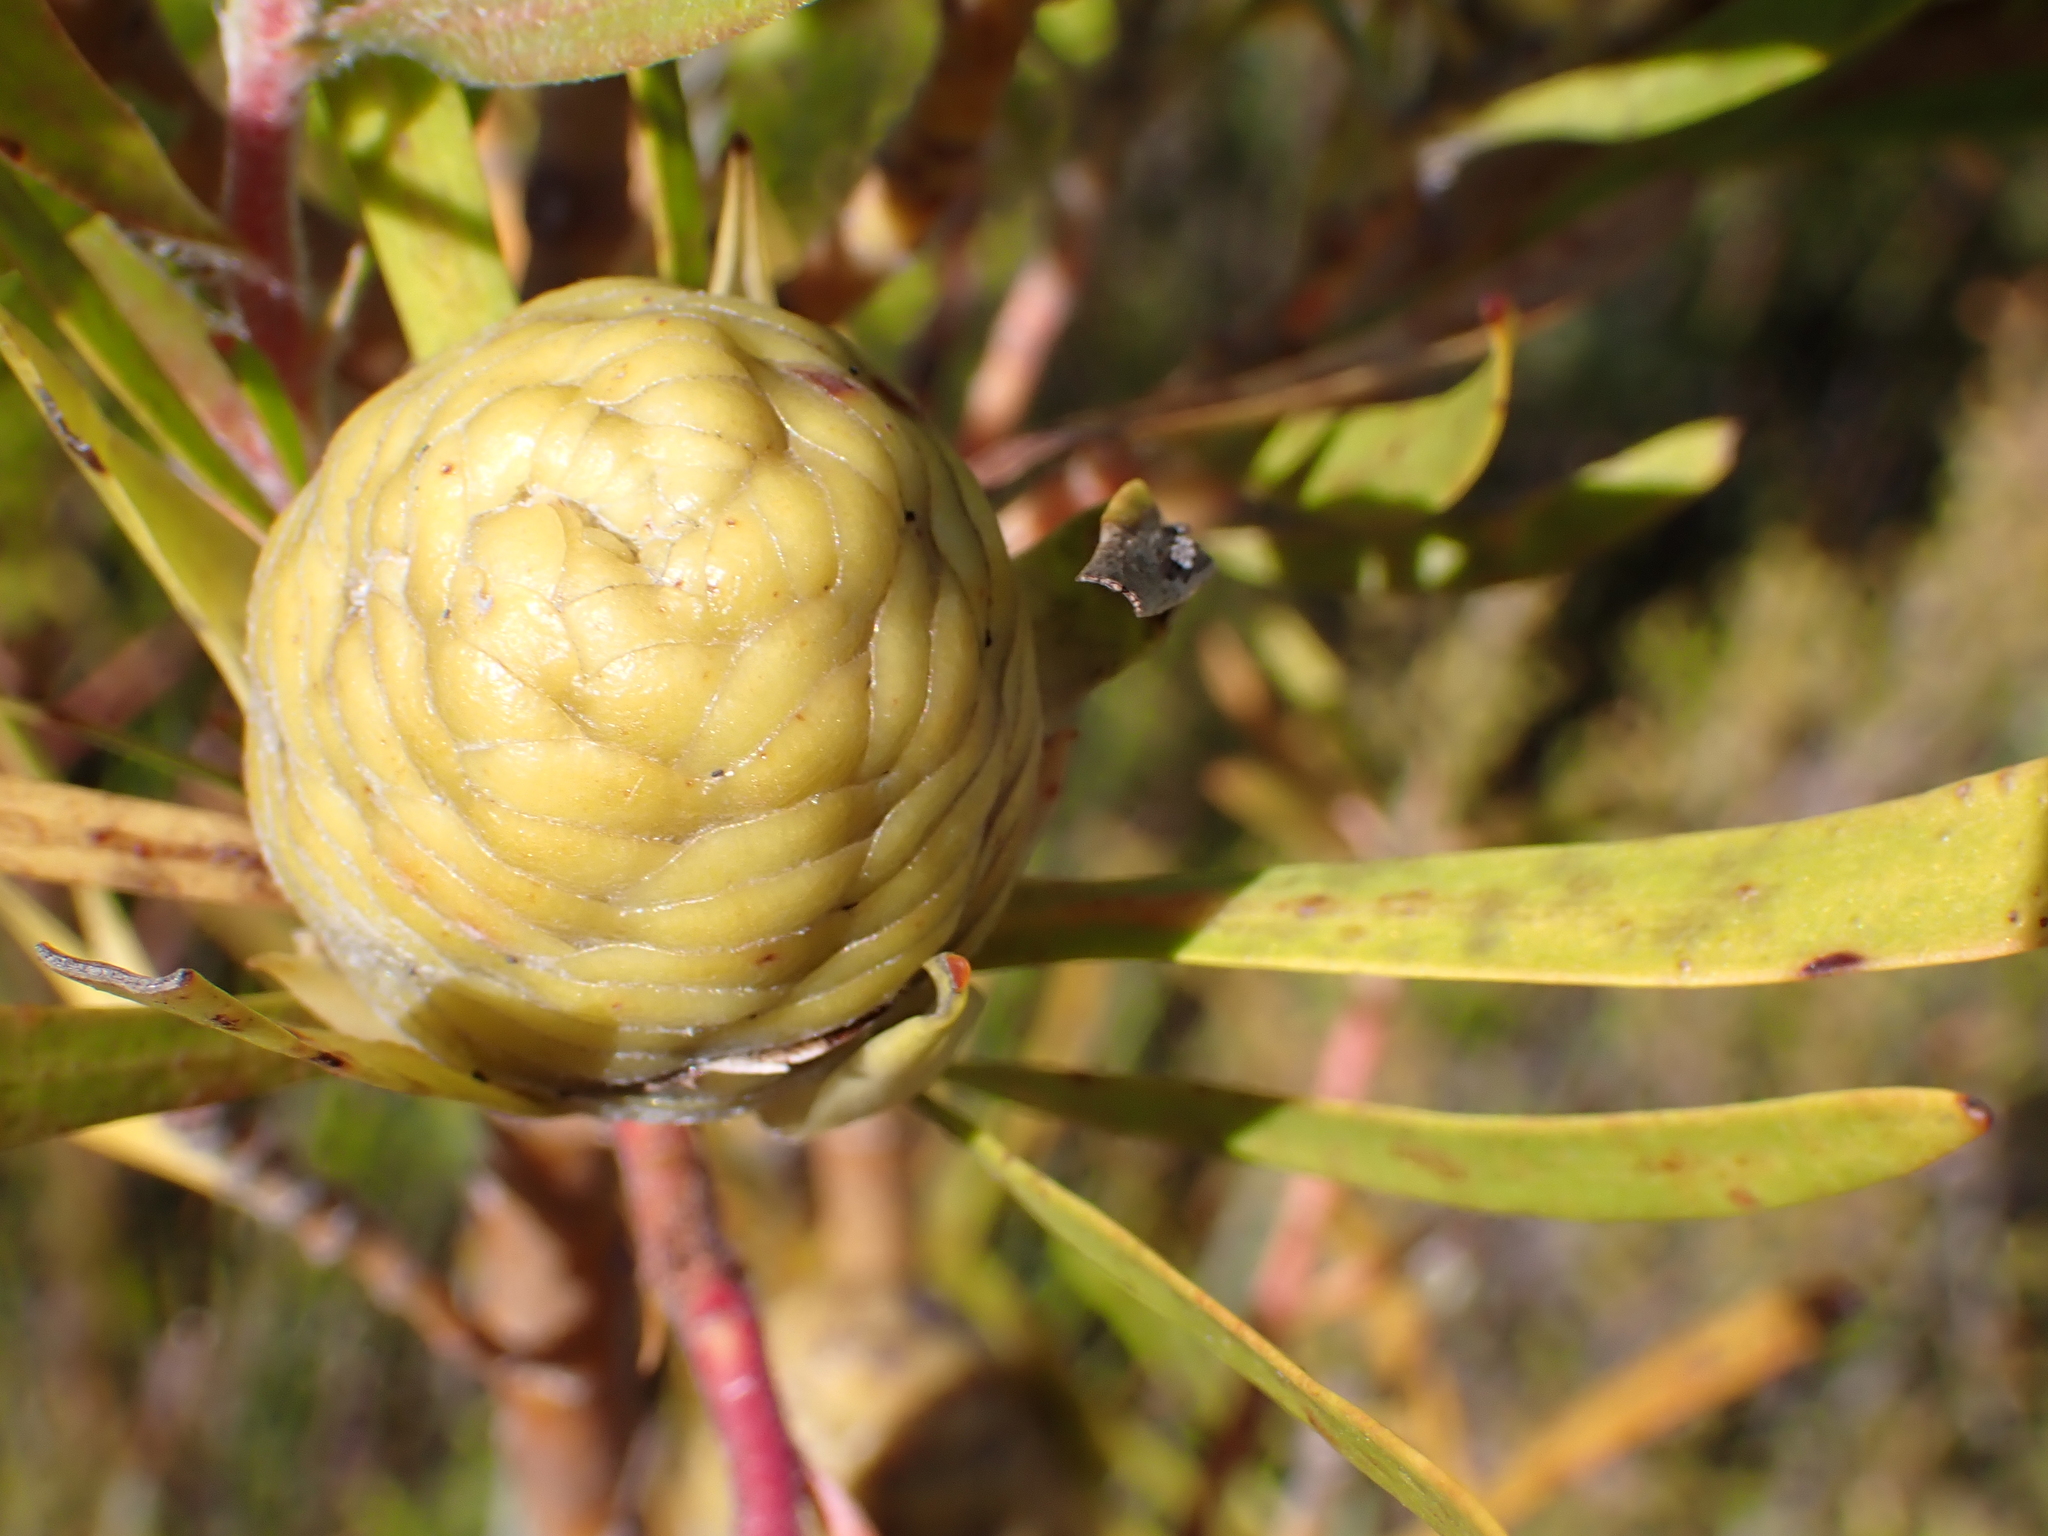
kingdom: Plantae
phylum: Tracheophyta
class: Magnoliopsida
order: Proteales
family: Proteaceae
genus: Leucadendron
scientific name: Leucadendron eucalyptifolium
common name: Gum-leaved conebush
